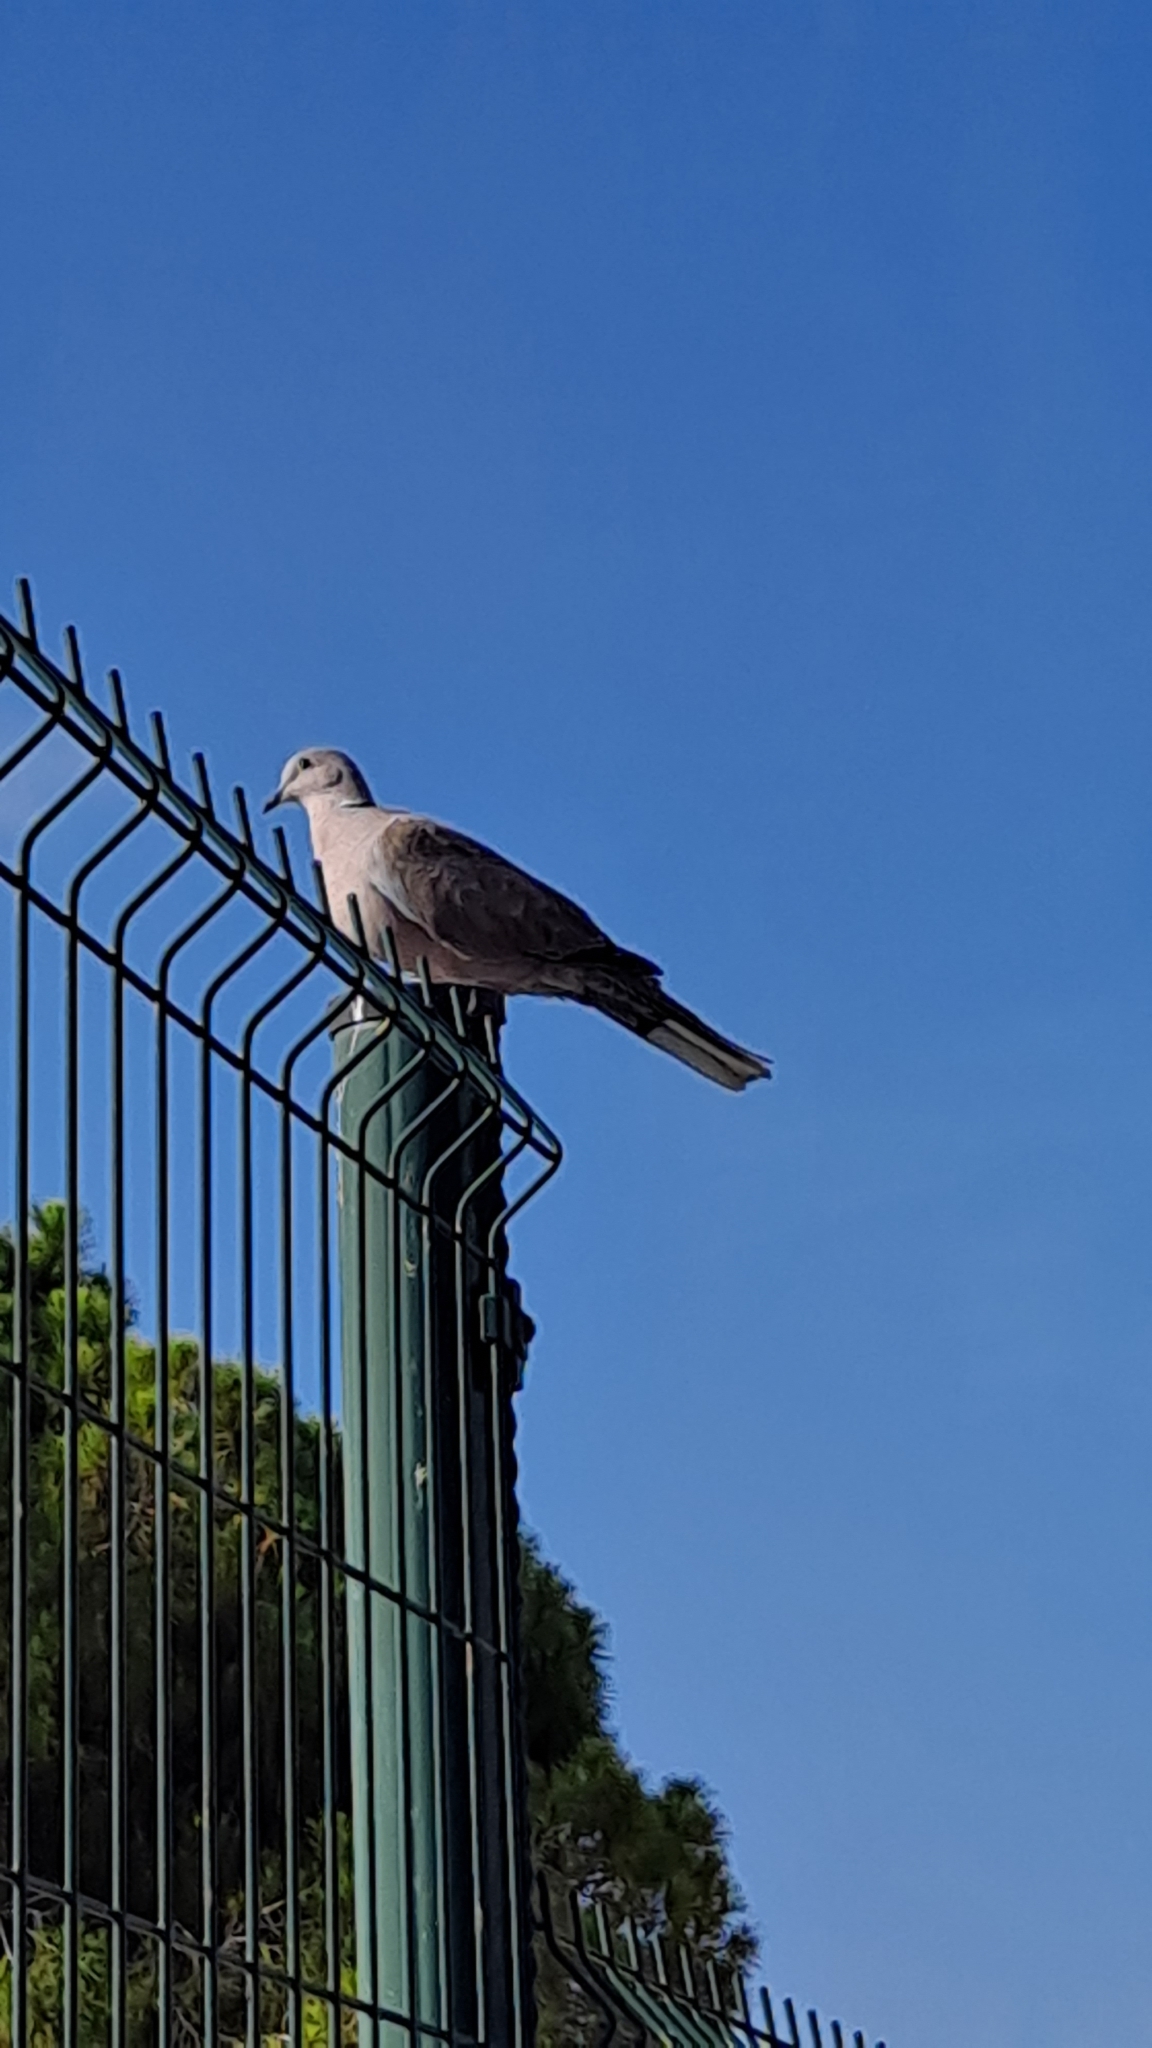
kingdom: Animalia
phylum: Chordata
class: Aves
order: Columbiformes
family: Columbidae
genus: Streptopelia
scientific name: Streptopelia decaocto
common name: Eurasian collared dove
